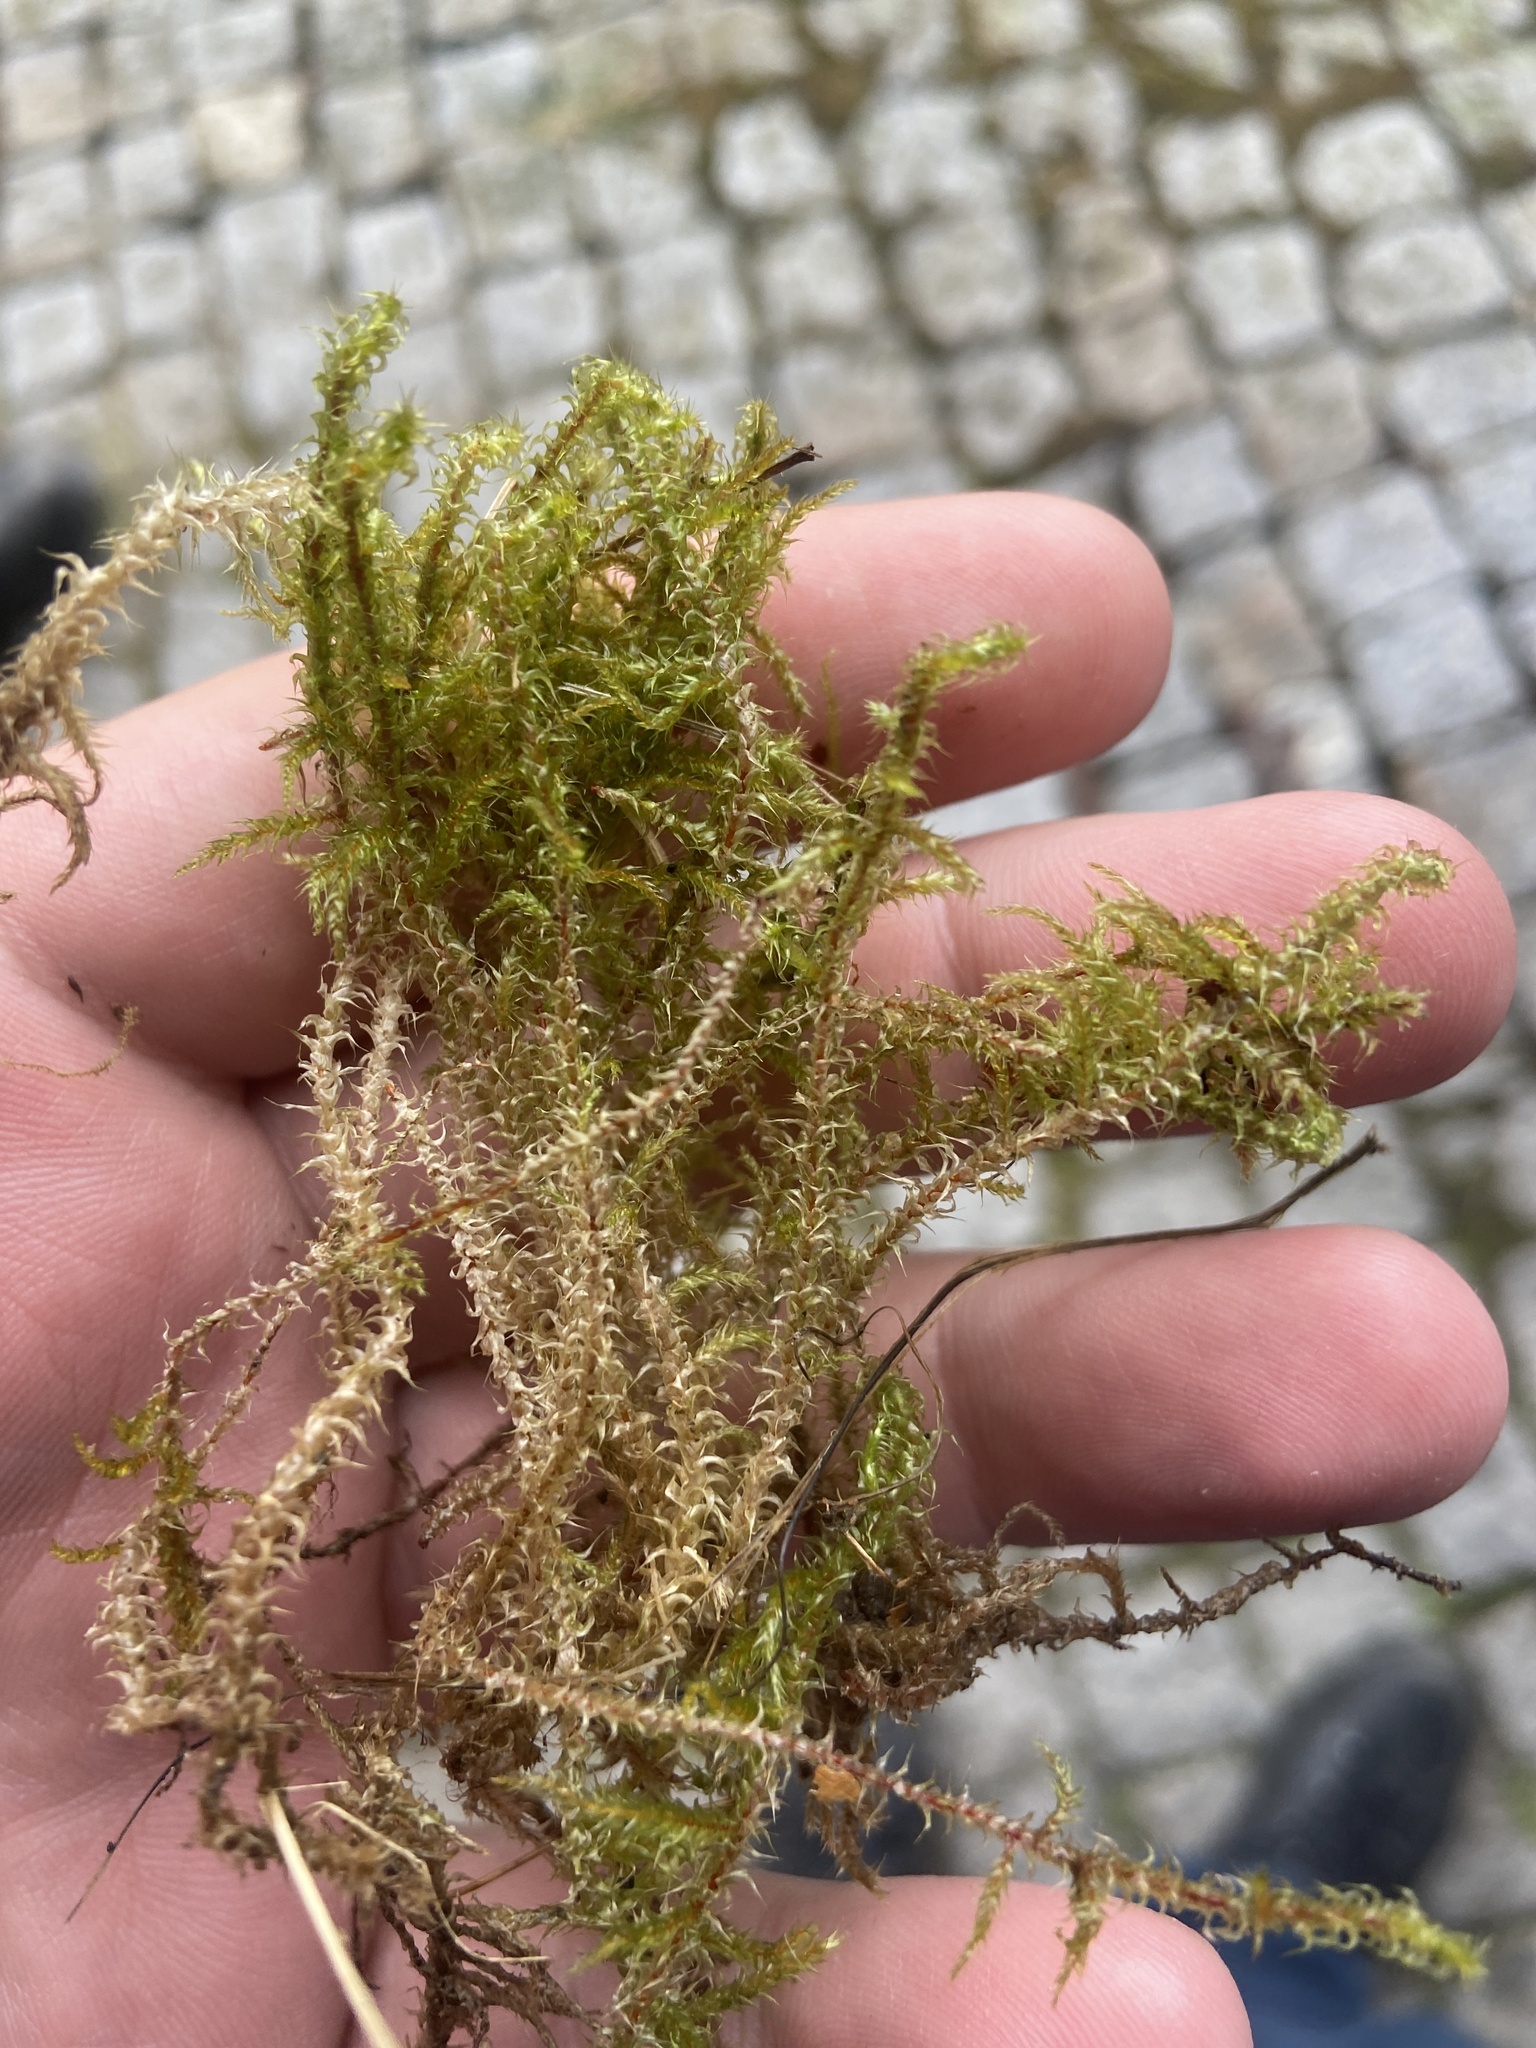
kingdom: Plantae
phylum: Bryophyta
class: Bryopsida
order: Hypnales
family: Hylocomiaceae
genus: Rhytidiadelphus
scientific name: Rhytidiadelphus squarrosus
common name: Springy turf-moss
